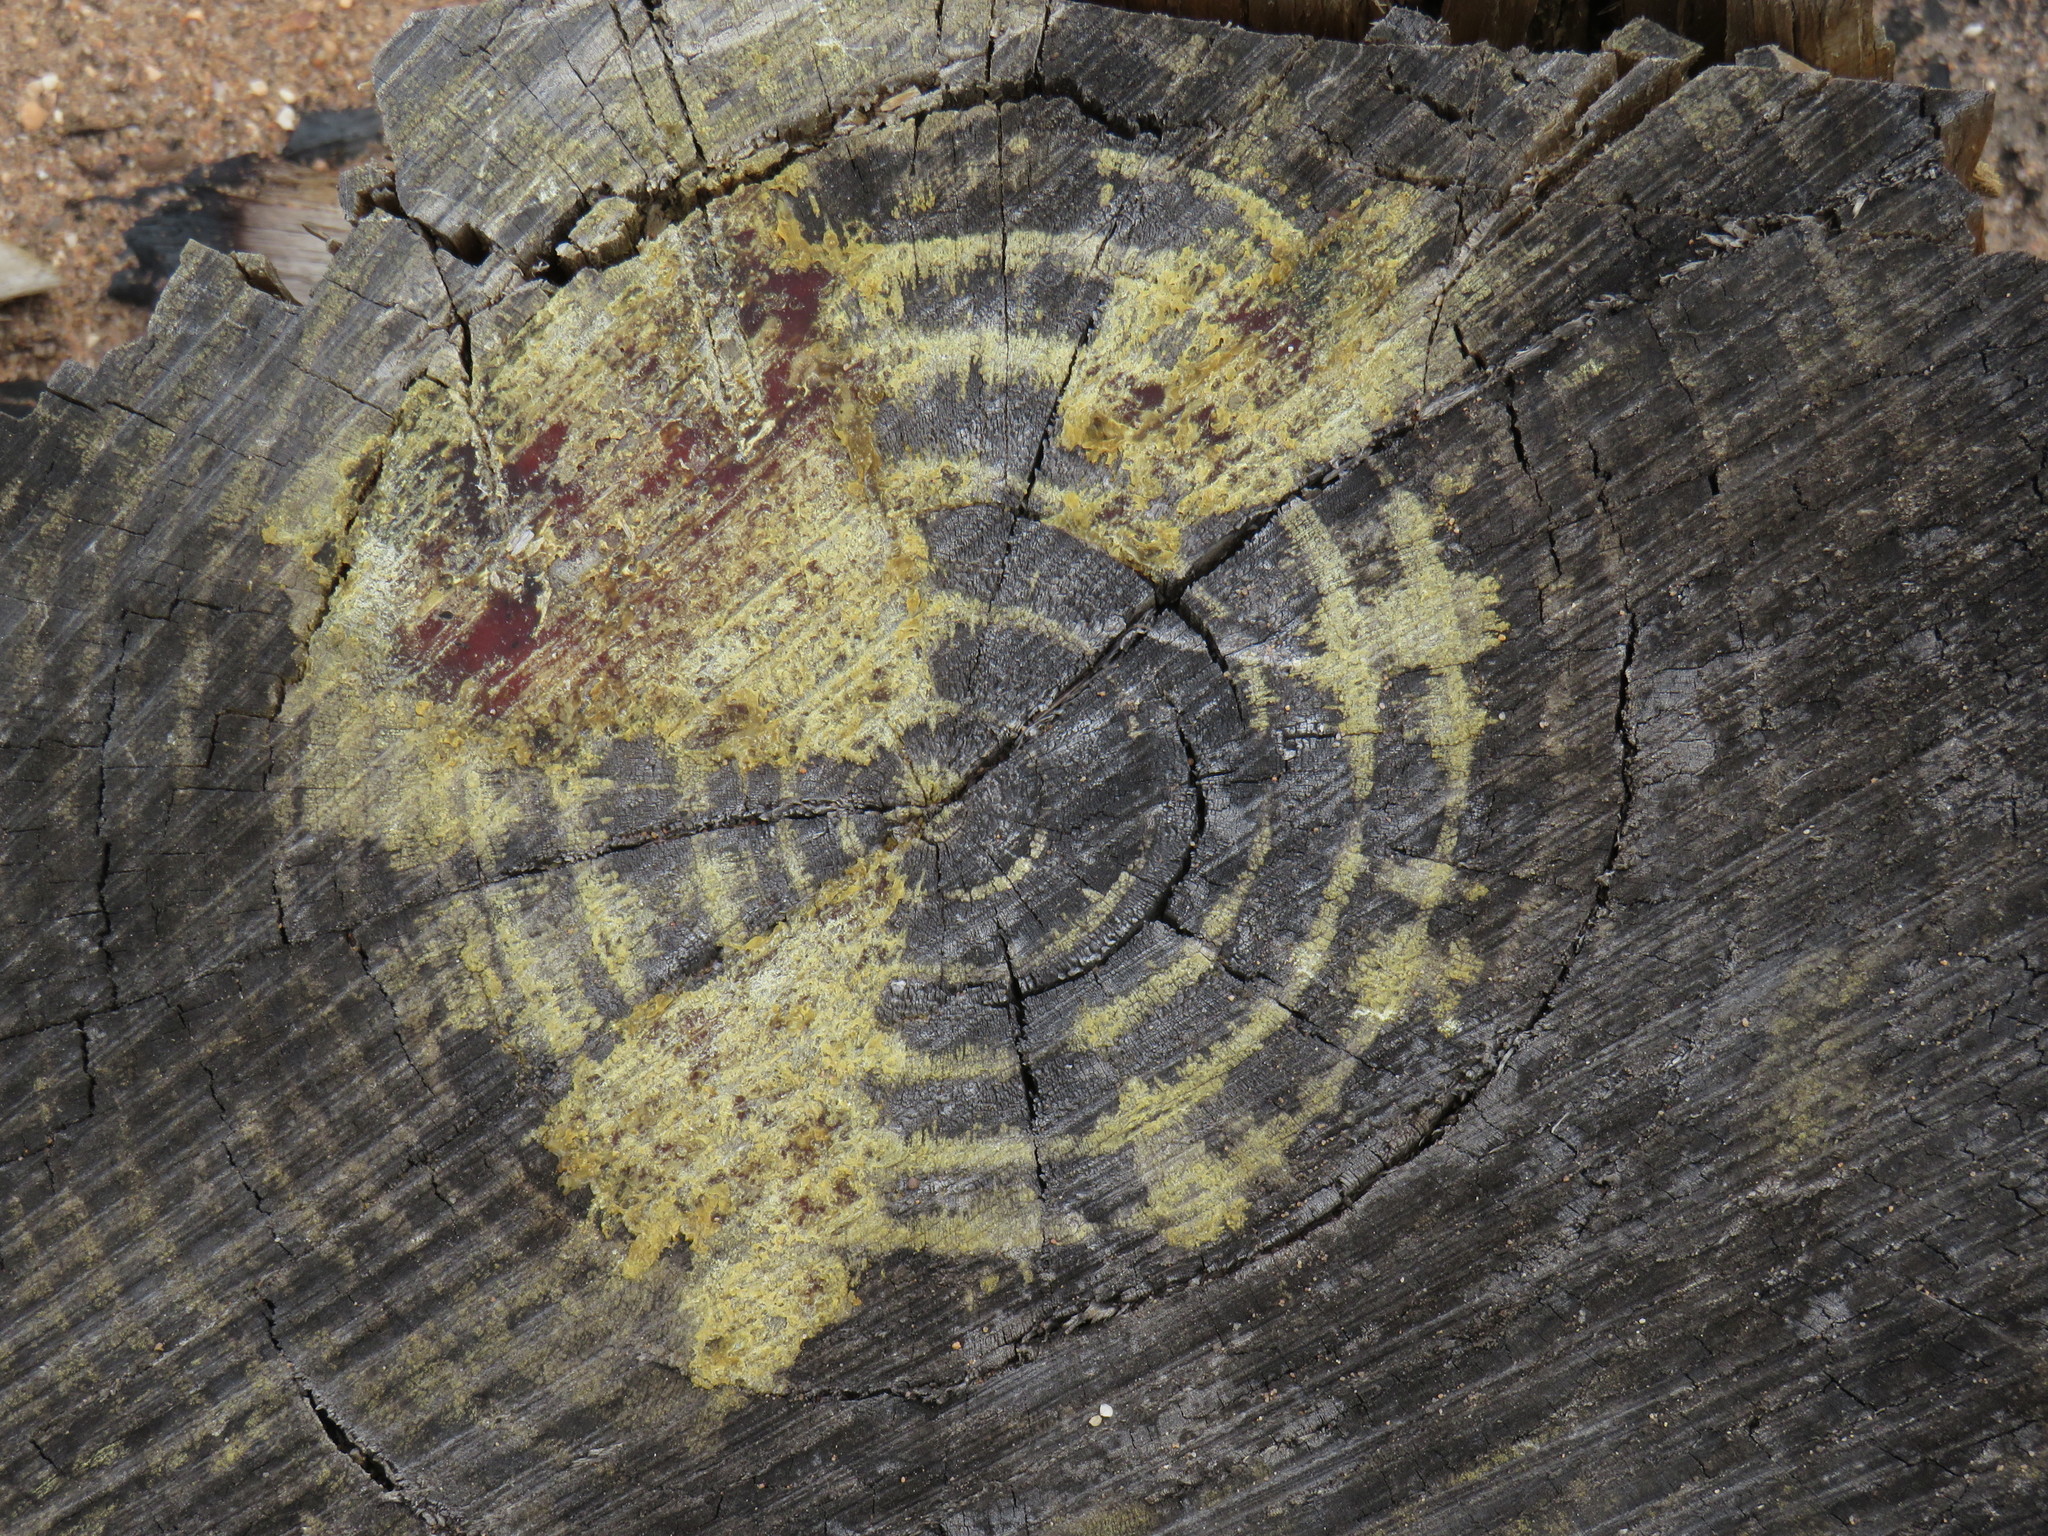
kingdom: Plantae
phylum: Tracheophyta
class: Pinopsida
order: Pinales
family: Pinaceae
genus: Pinus
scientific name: Pinus radiata
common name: Monterey pine
